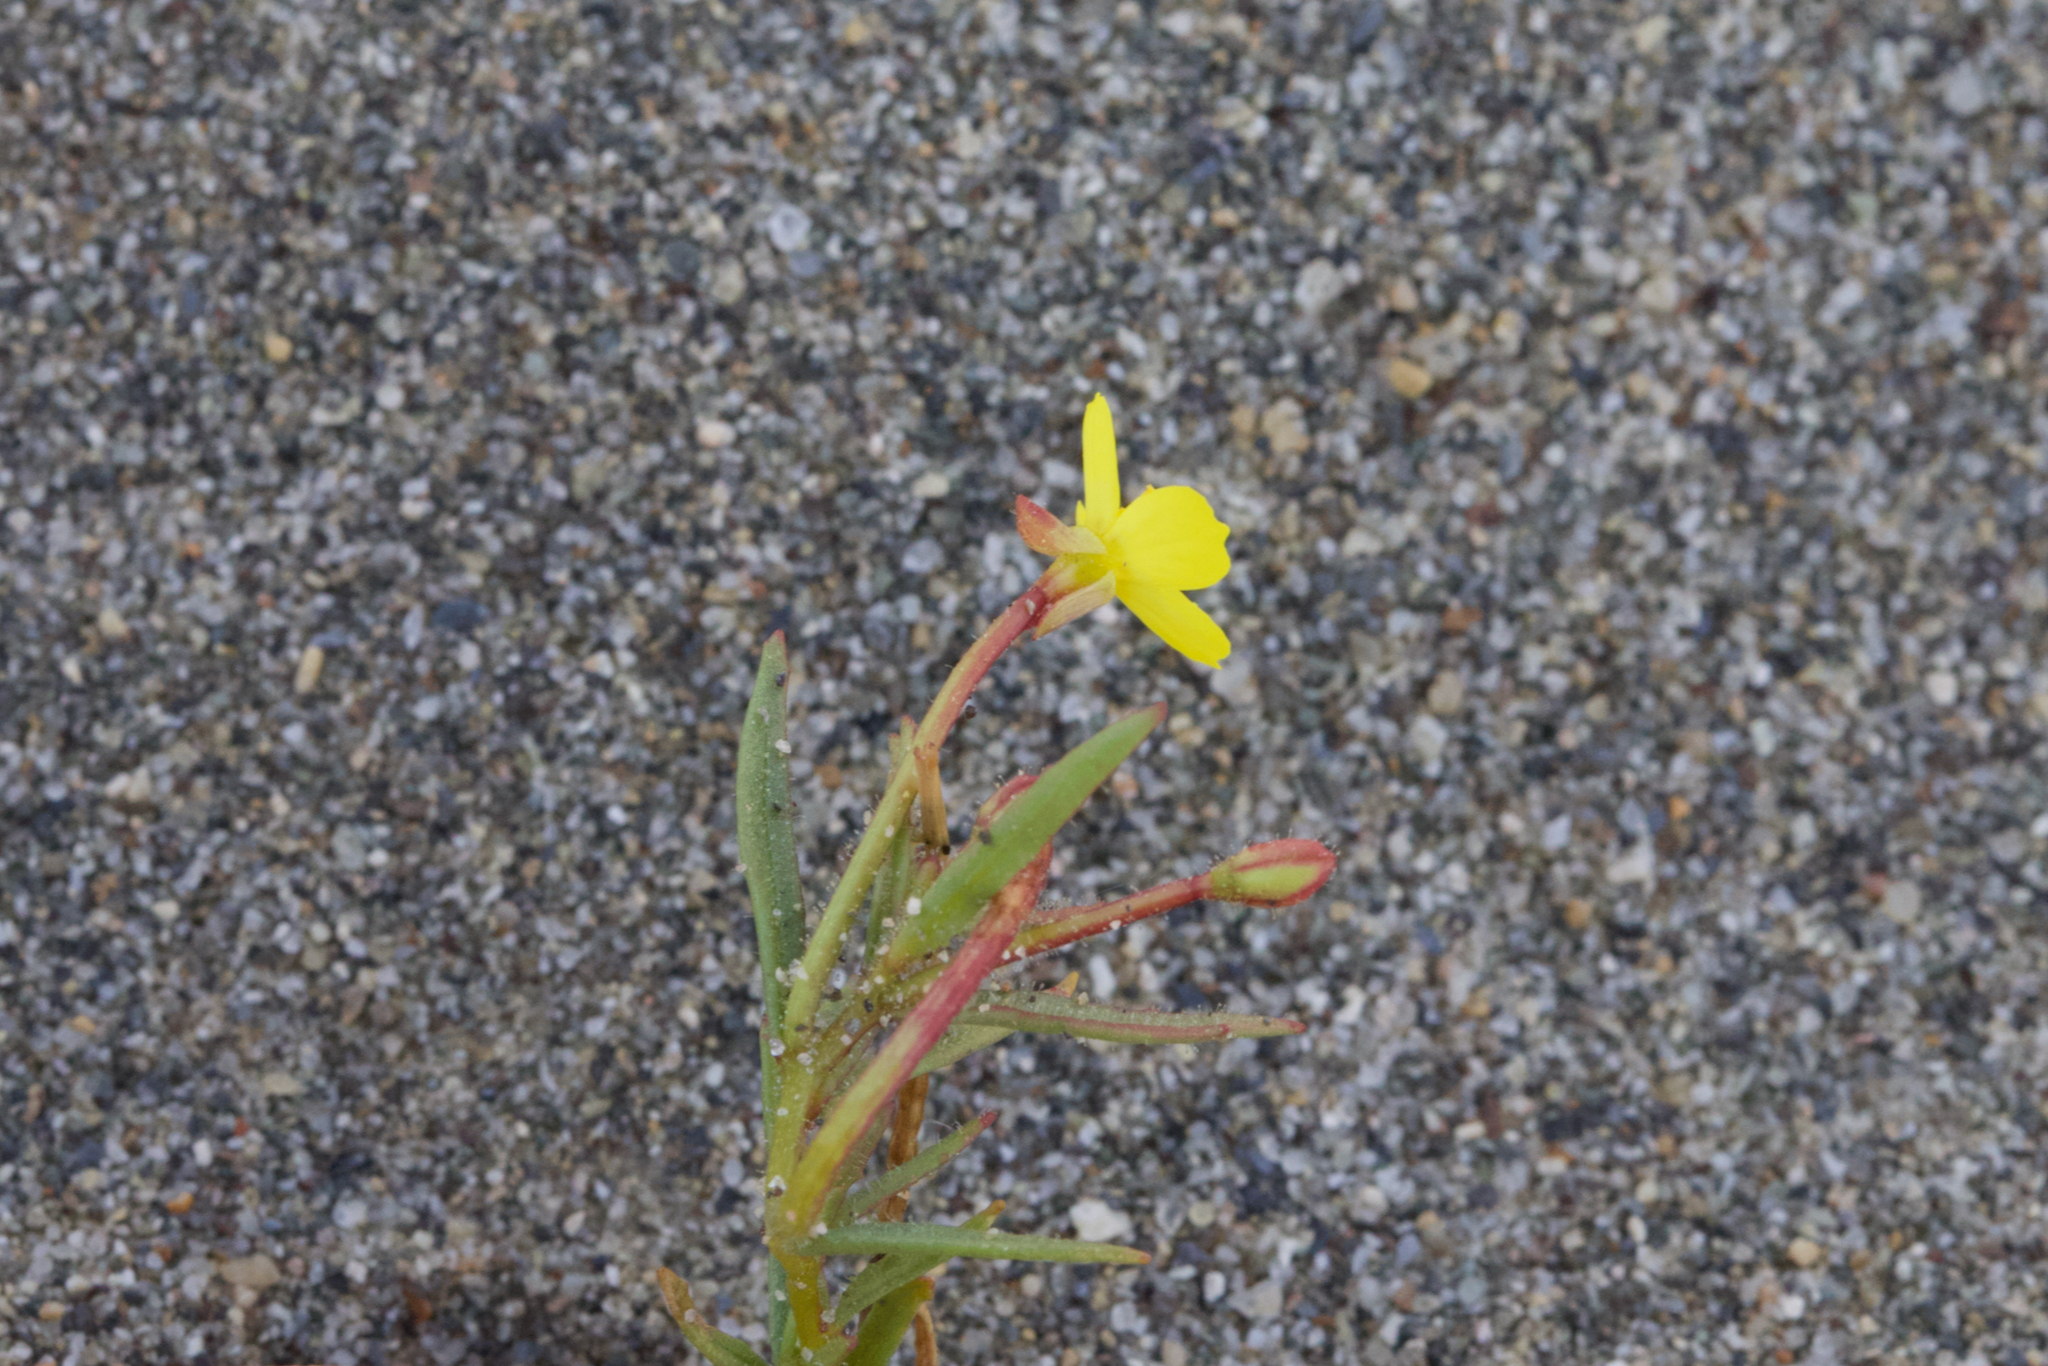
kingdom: Plantae
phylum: Tracheophyta
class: Magnoliopsida
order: Myrtales
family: Onagraceae
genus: Camissonia
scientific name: Camissonia contorta
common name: Contorted suncup
